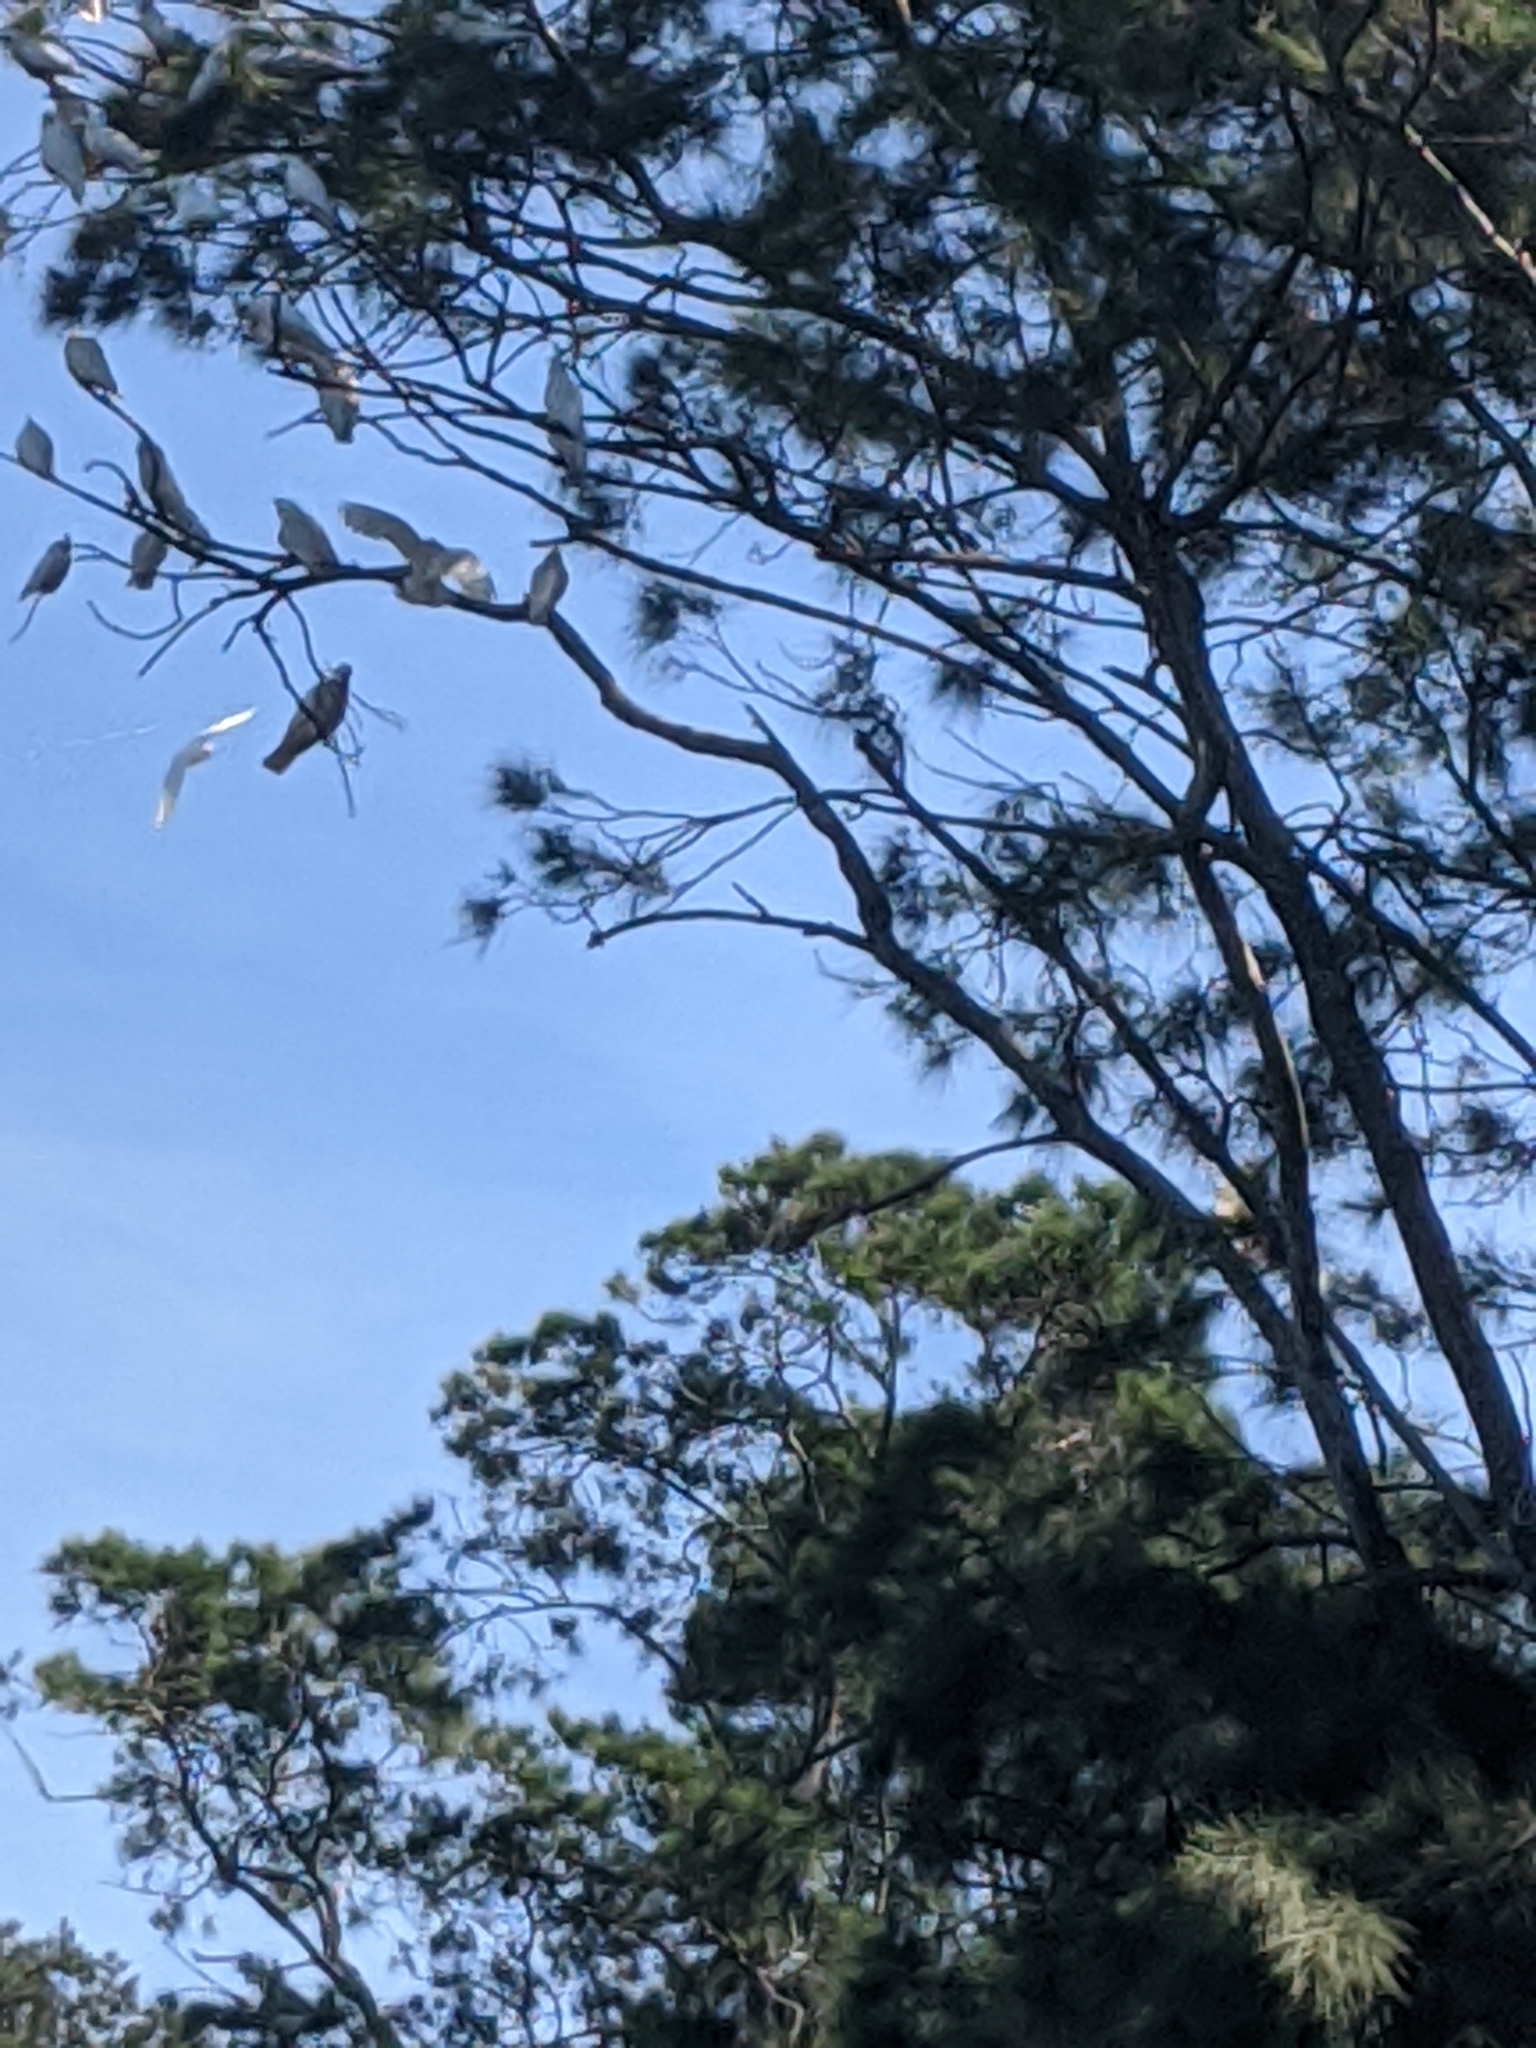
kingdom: Animalia
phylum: Chordata
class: Aves
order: Psittaciformes
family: Psittacidae
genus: Cacatua
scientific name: Cacatua galerita
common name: Sulphur-crested cockatoo
